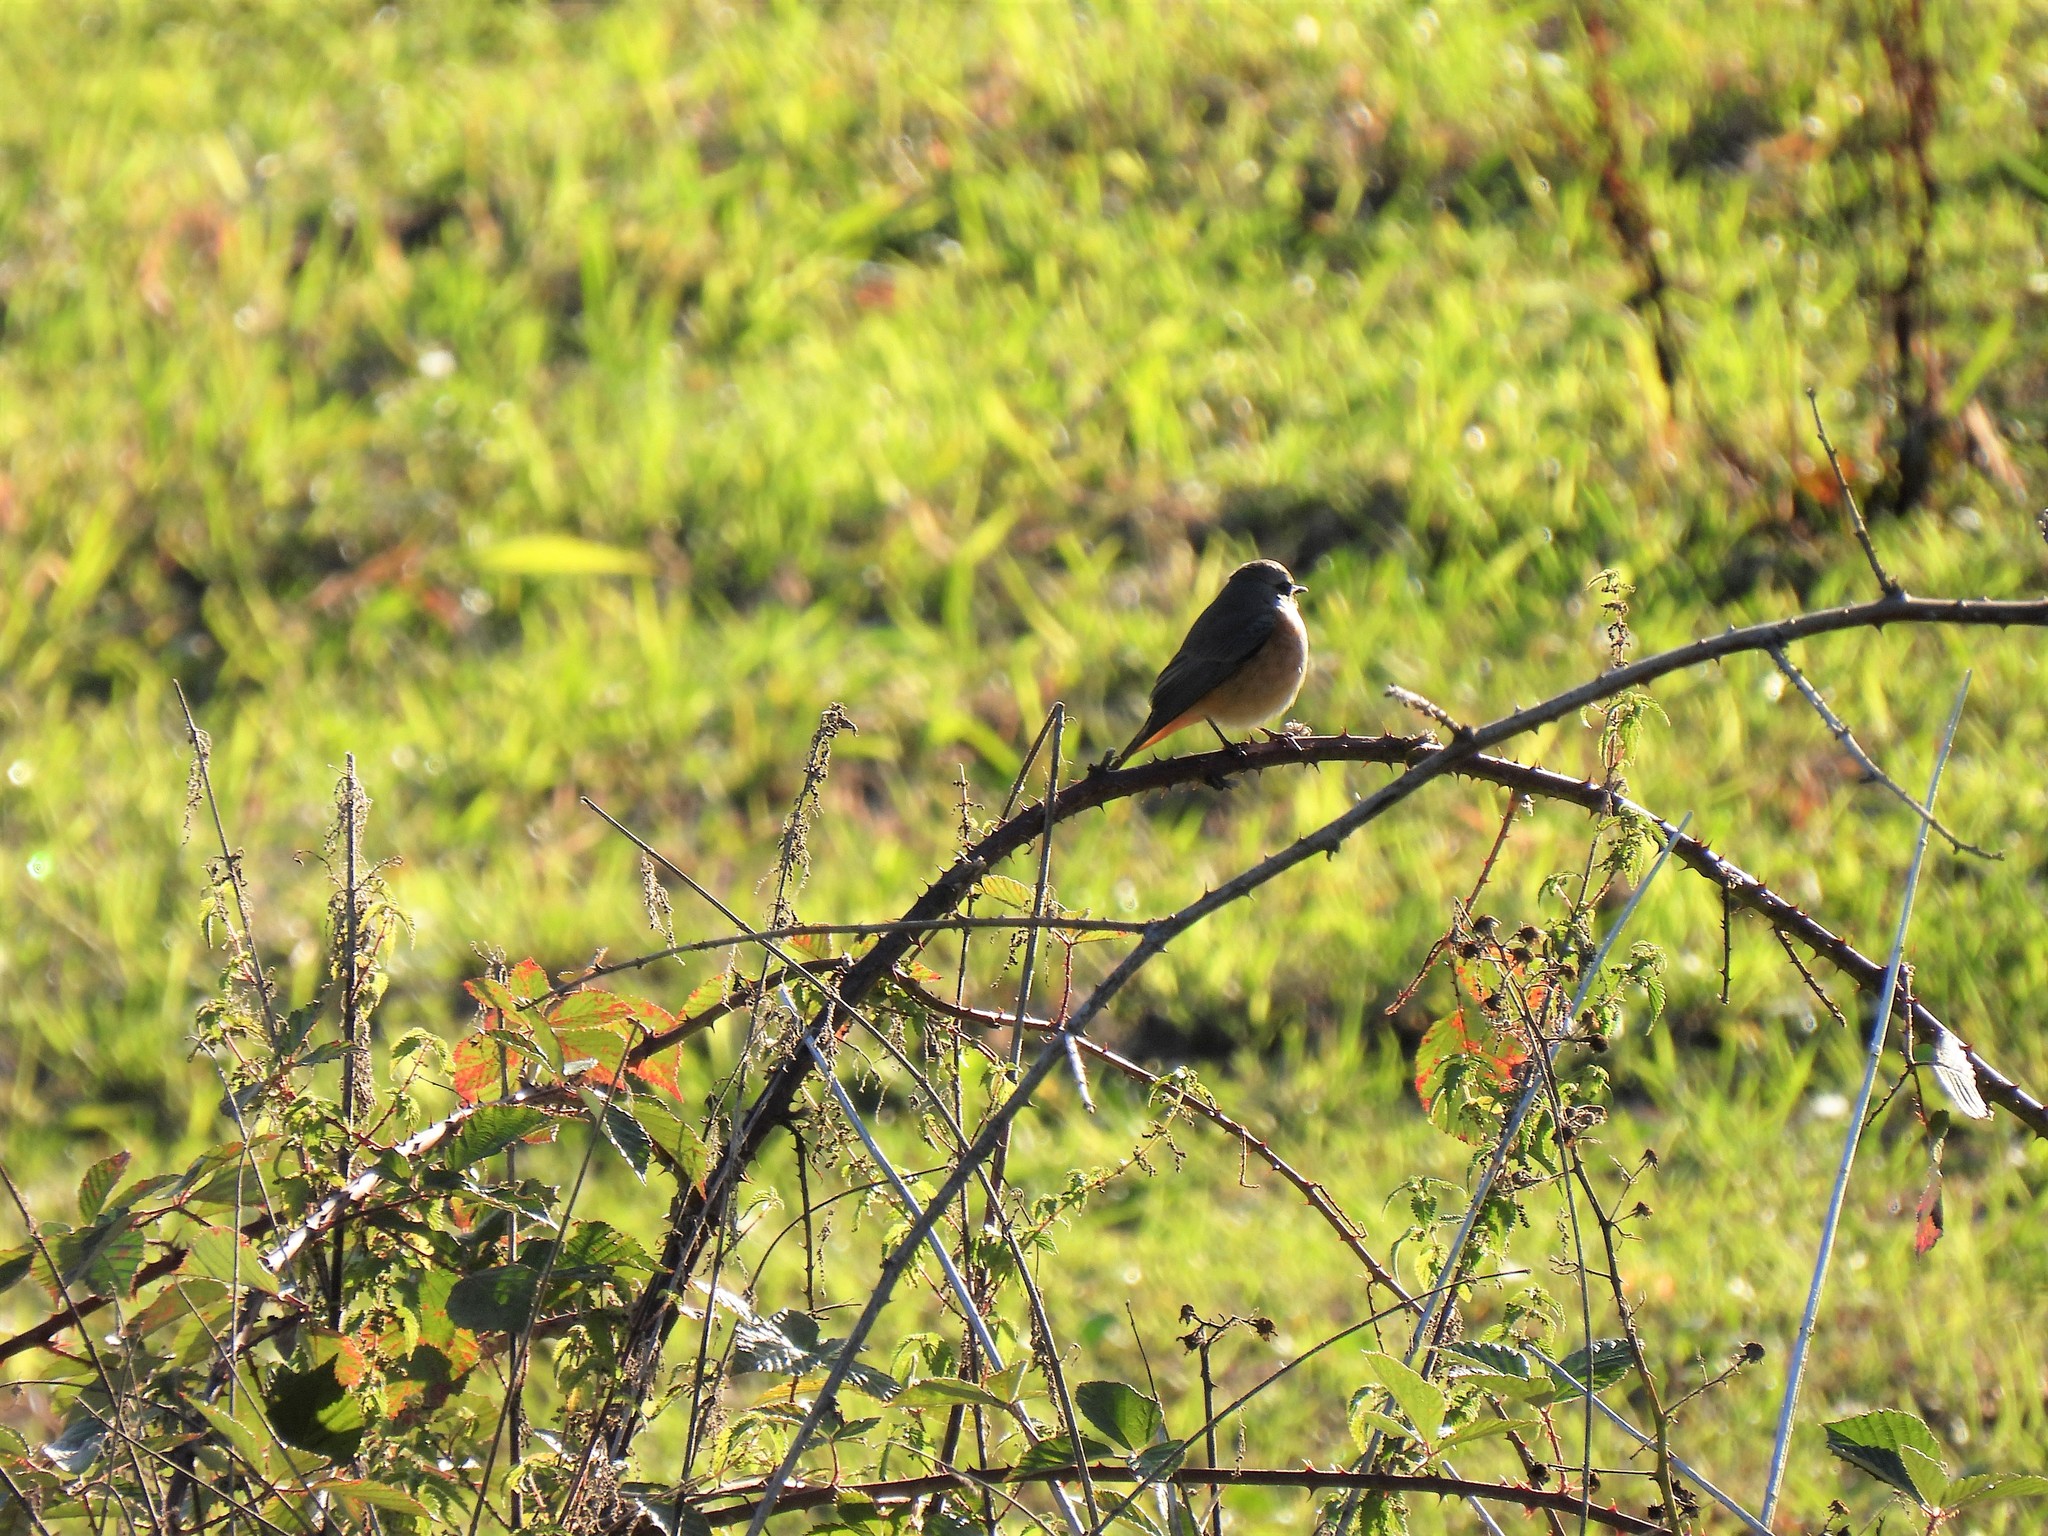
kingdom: Animalia
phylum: Chordata
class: Aves
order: Passeriformes
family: Muscicapidae
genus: Phoenicurus
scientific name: Phoenicurus phoenicurus
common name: Common redstart
